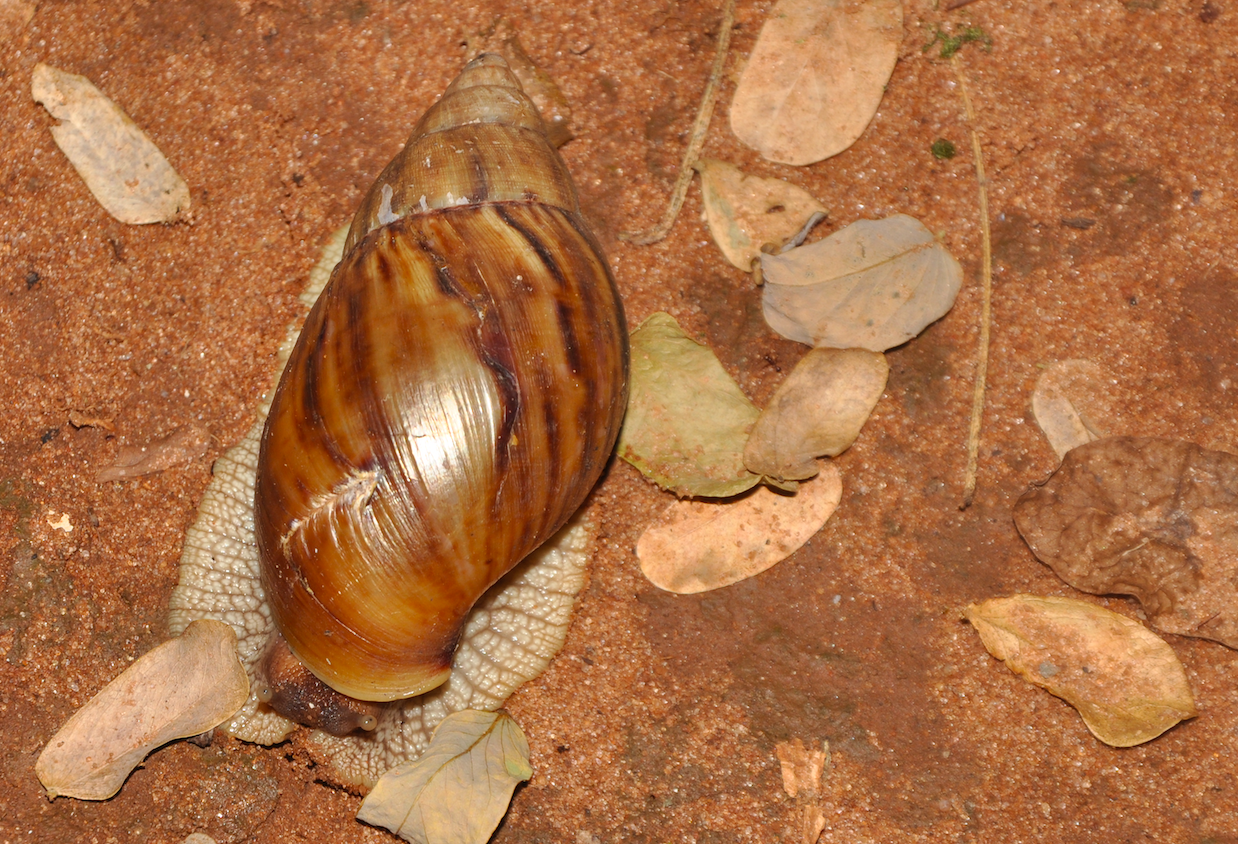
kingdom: Animalia
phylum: Mollusca
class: Gastropoda
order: Stylommatophora
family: Achatinidae
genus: Lissachatina
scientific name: Lissachatina immaculata
